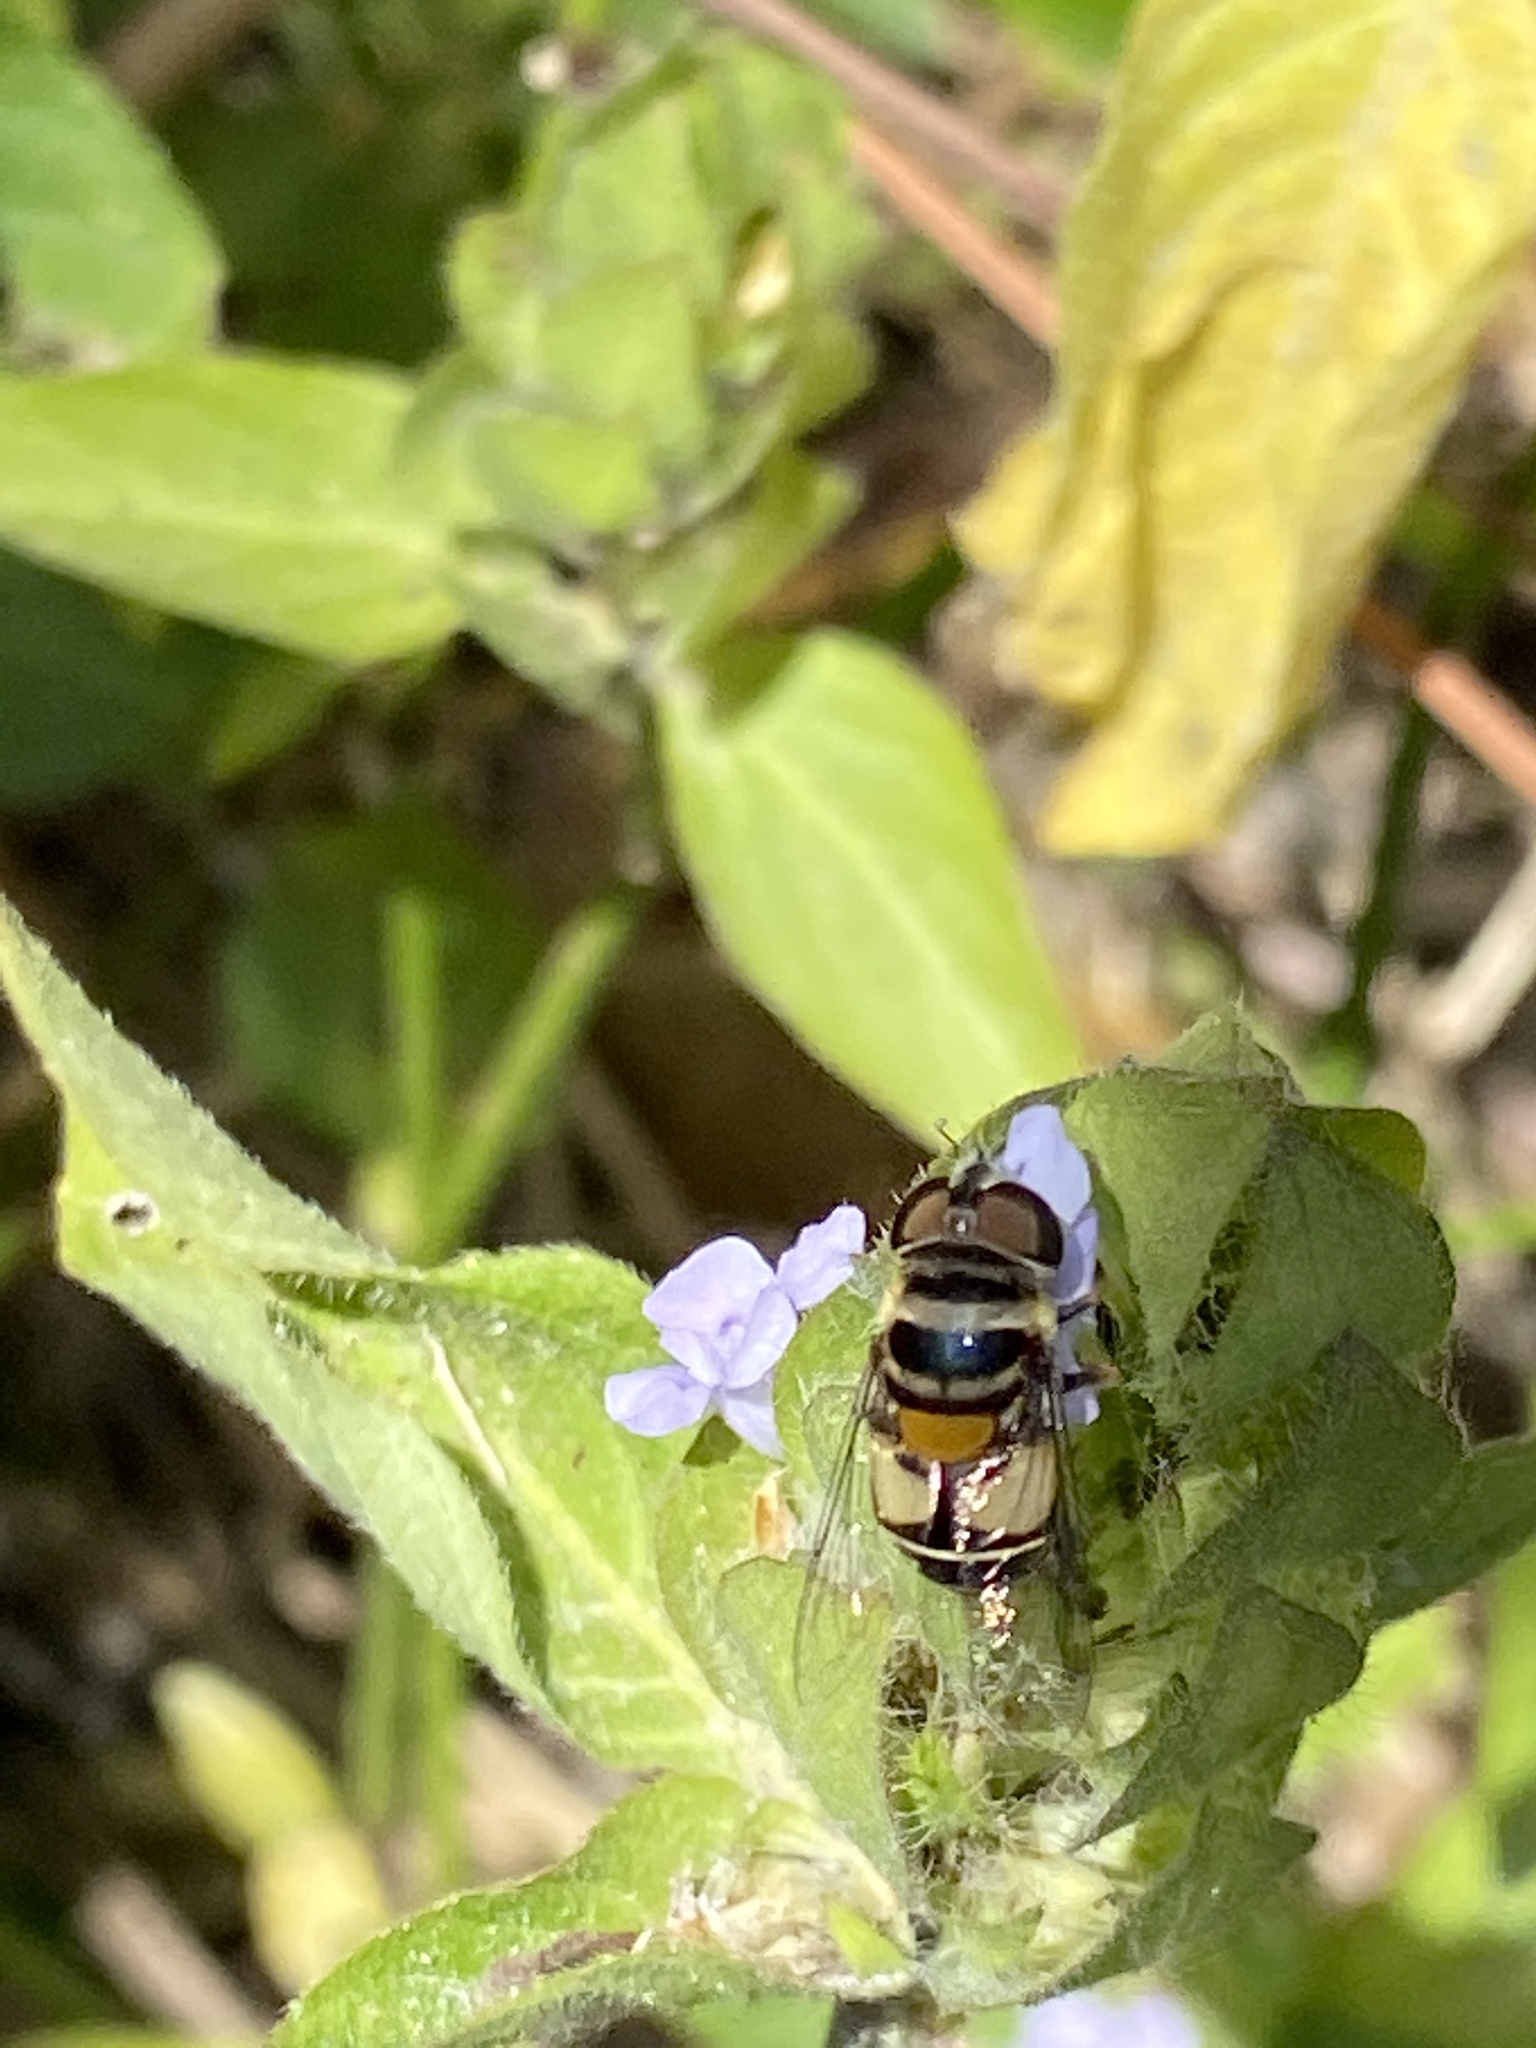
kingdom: Animalia
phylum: Arthropoda
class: Insecta
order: Diptera
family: Syrphidae
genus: Palpada
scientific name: Palpada albifrons
